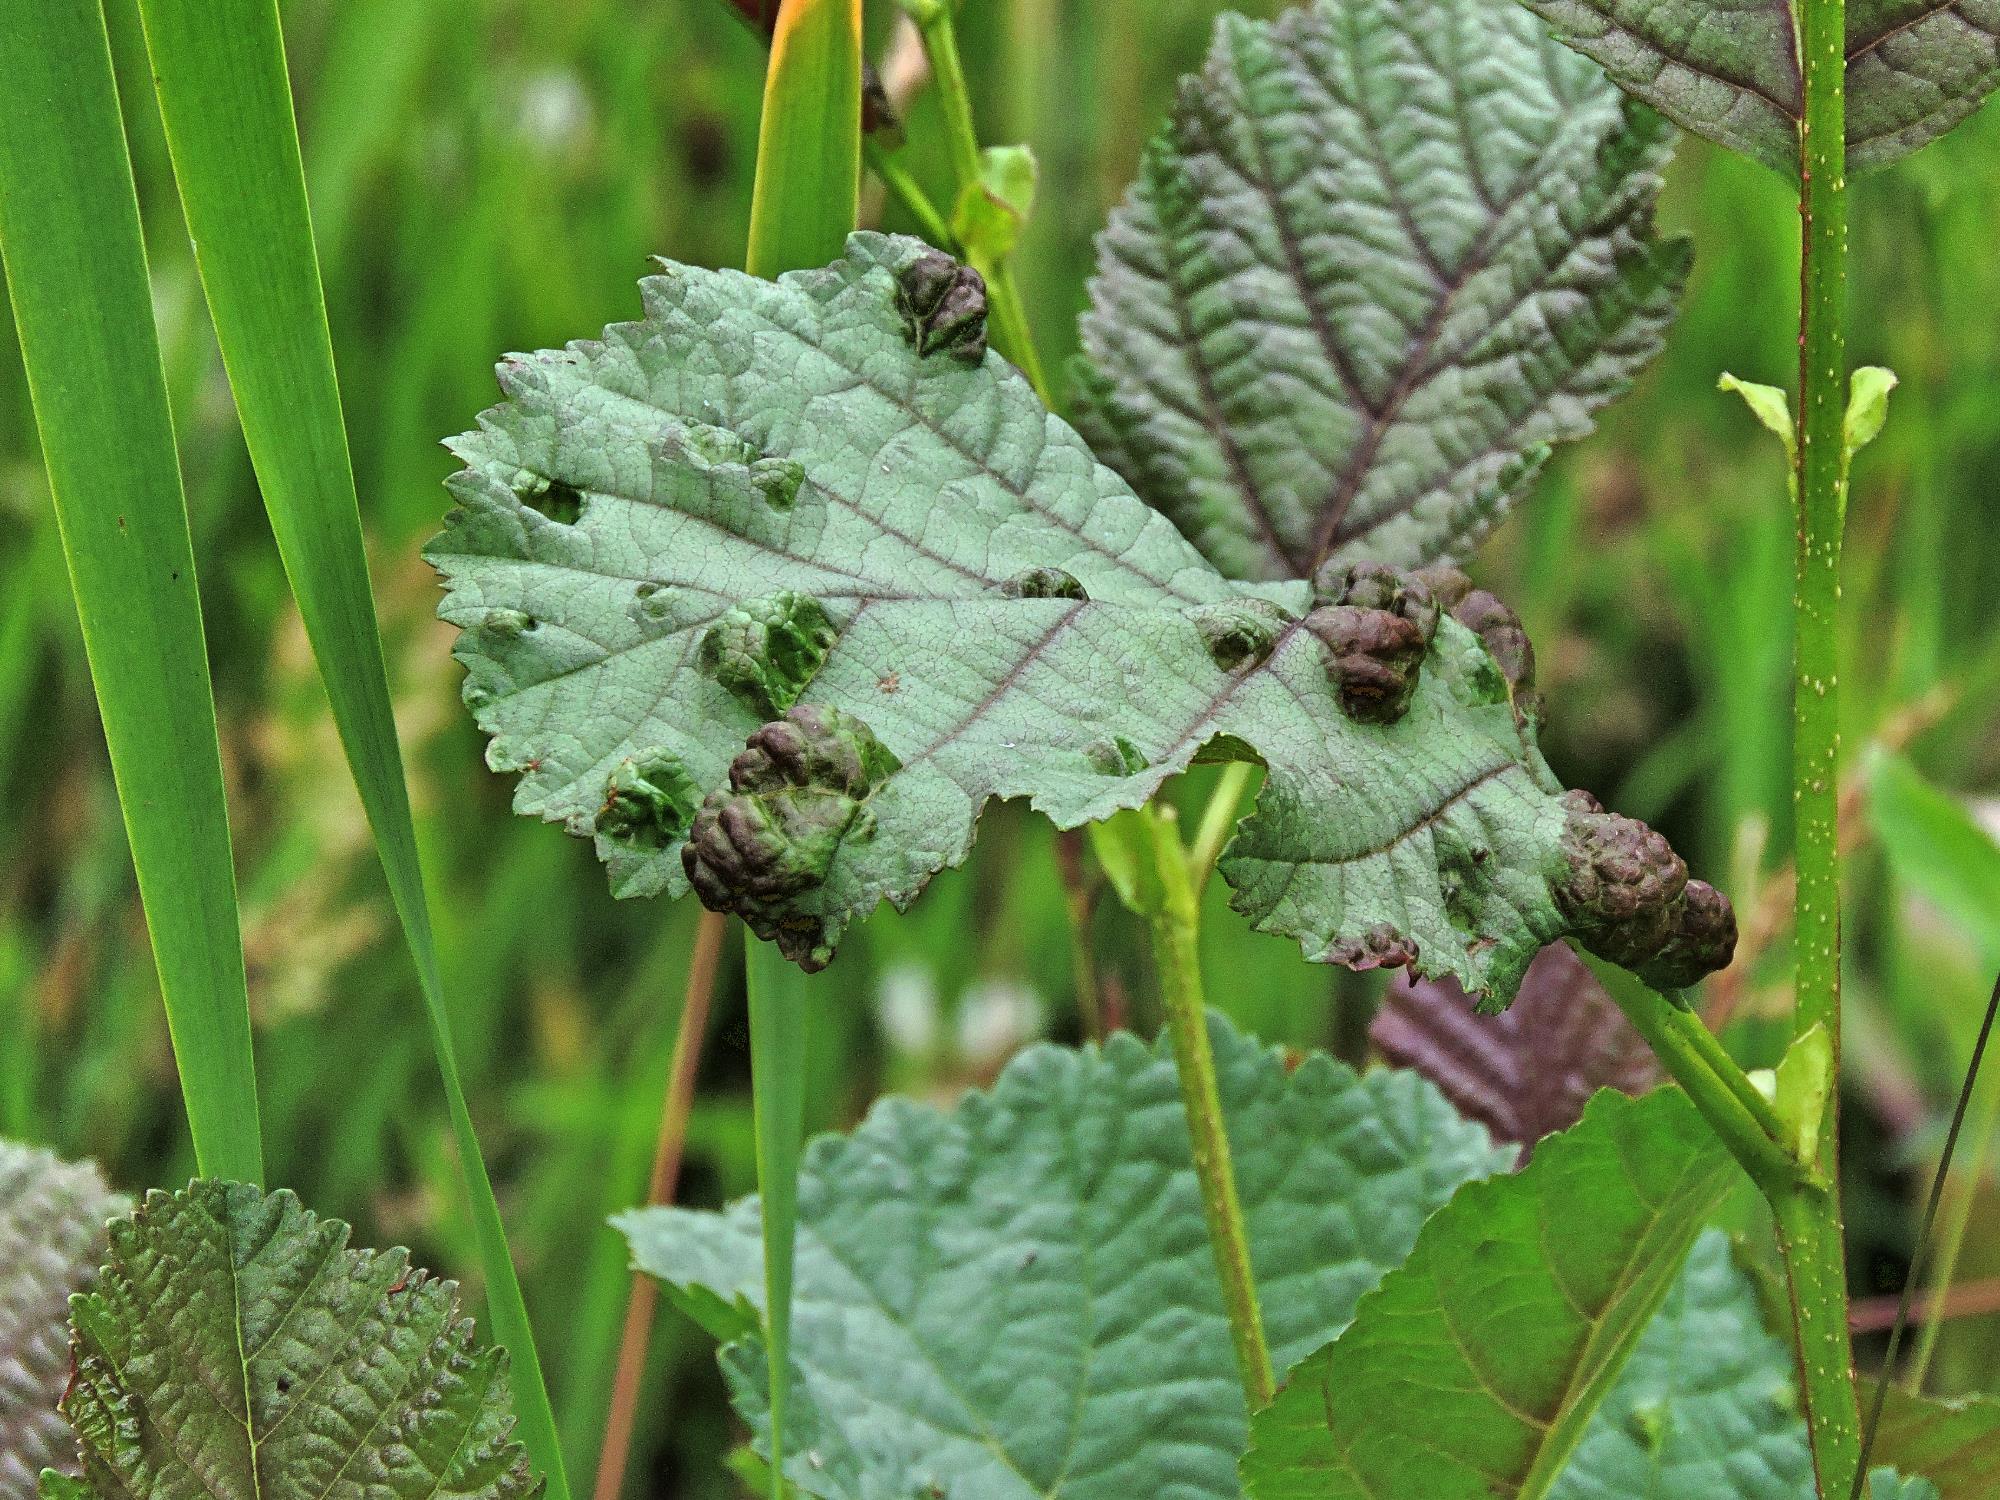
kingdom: Animalia
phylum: Arthropoda
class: Arachnida
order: Trombidiformes
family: Eriophyidae
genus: Acalitus
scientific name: Acalitus brevitarsus
